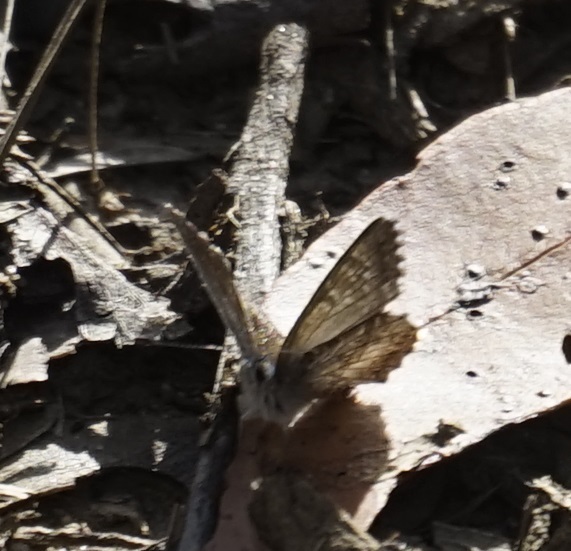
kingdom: Animalia
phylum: Arthropoda
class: Insecta
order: Lepidoptera
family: Lycaenidae
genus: Neolucia
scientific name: Neolucia agricola
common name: Fringed blue
